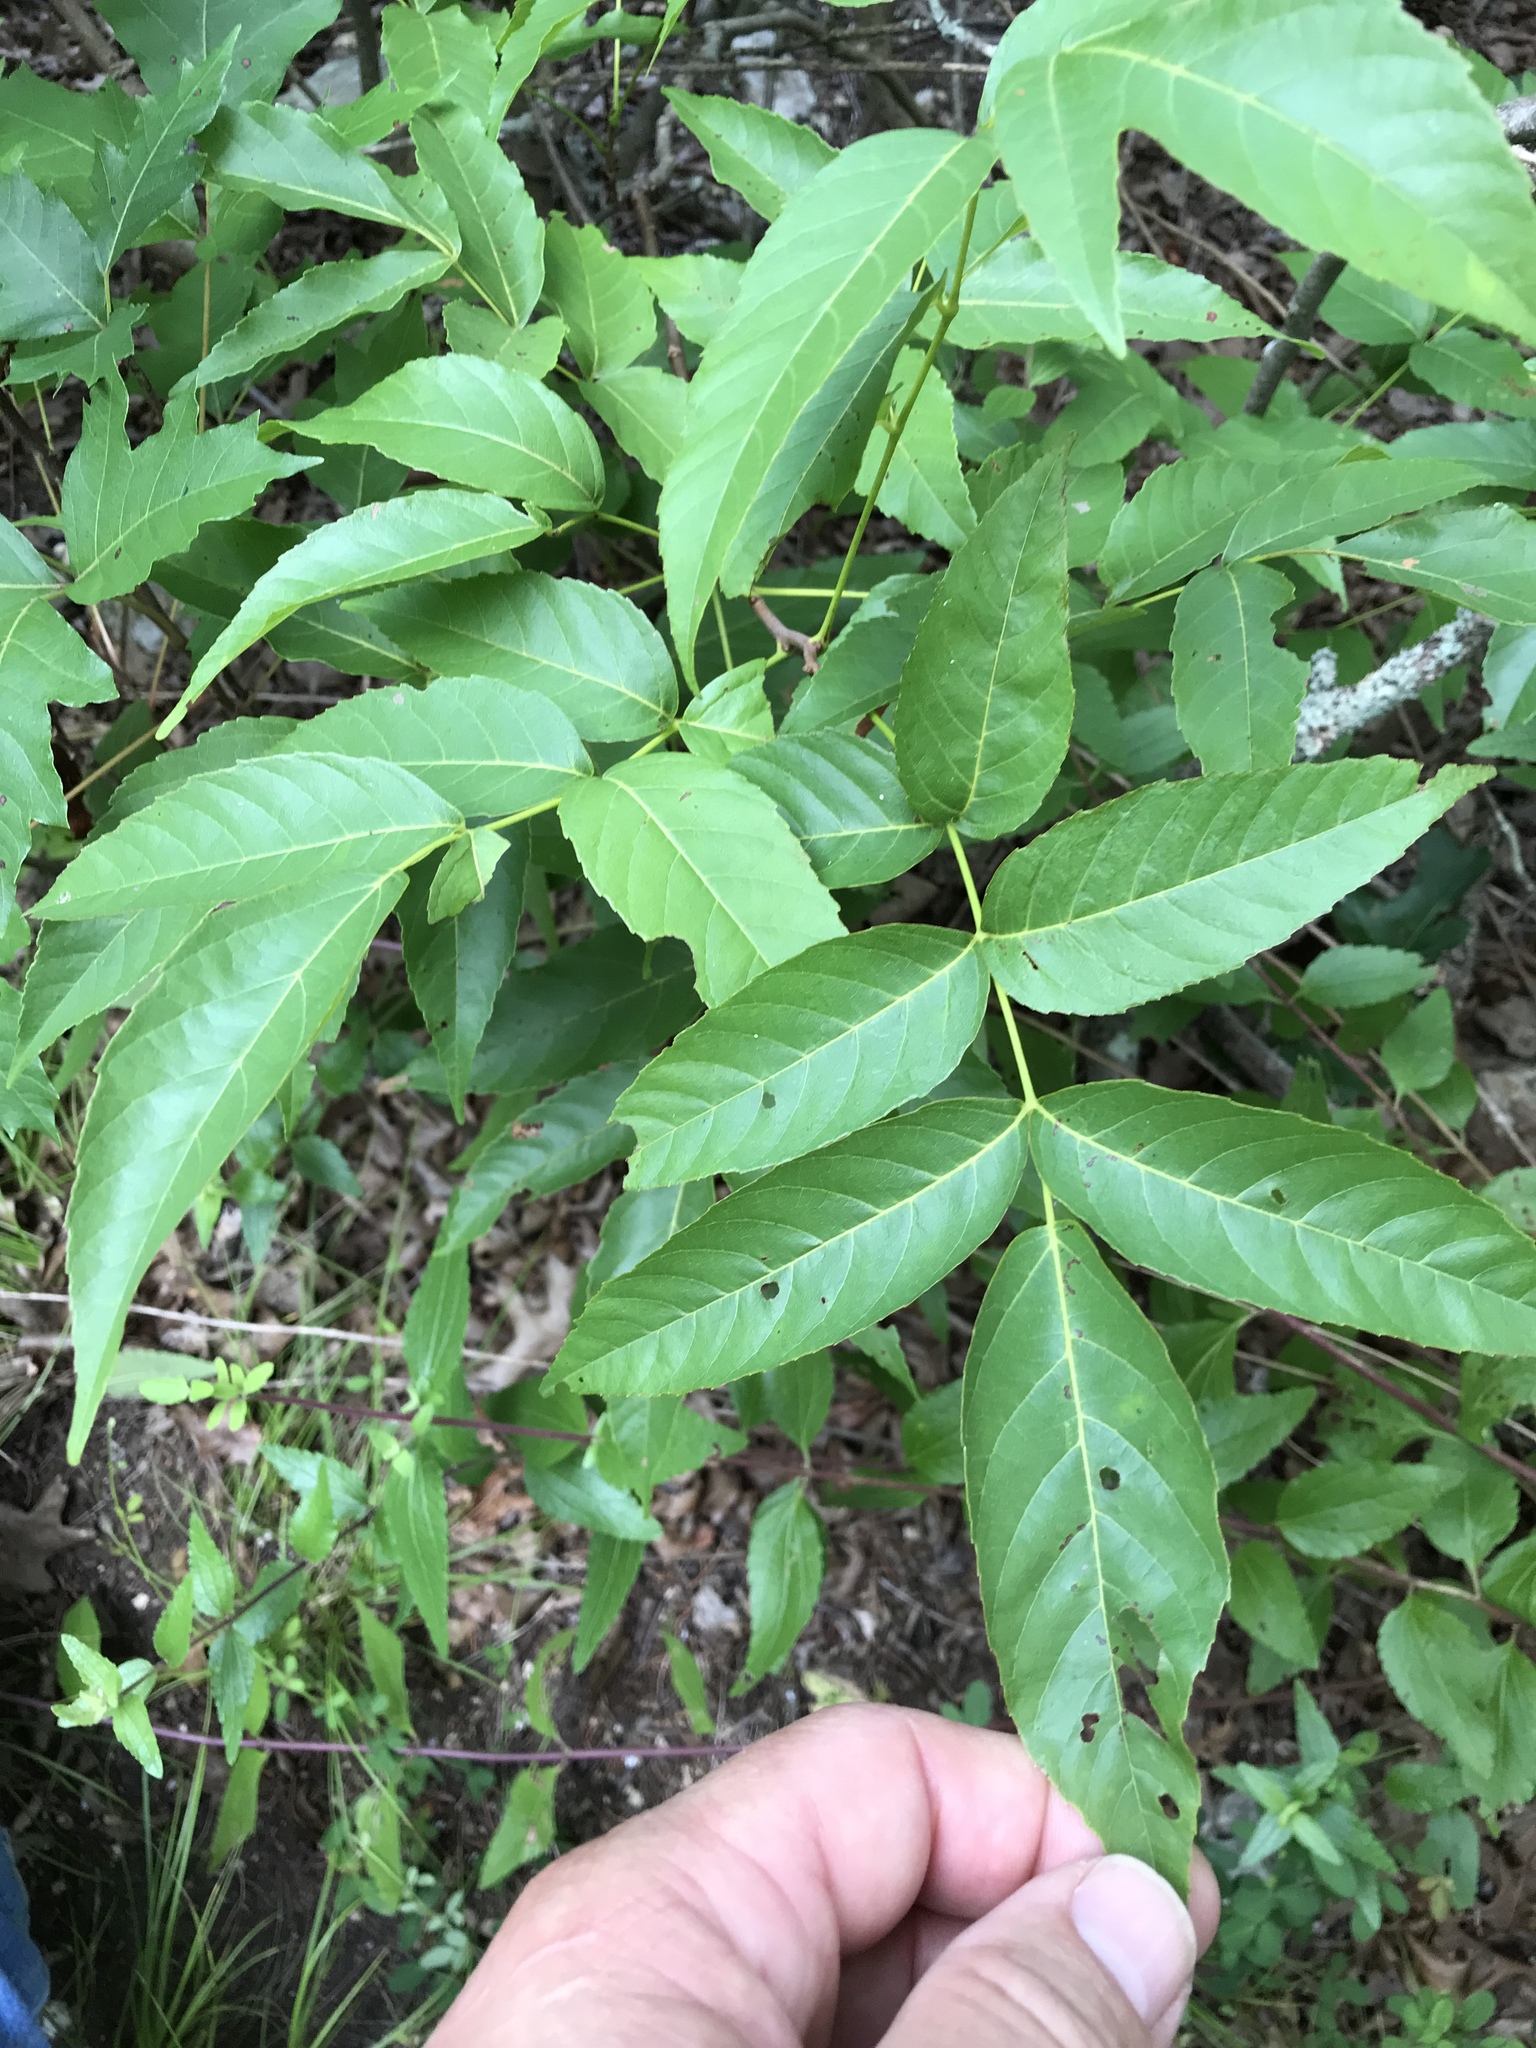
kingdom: Plantae
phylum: Tracheophyta
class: Magnoliopsida
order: Sapindales
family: Sapindaceae
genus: Ungnadia
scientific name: Ungnadia speciosa
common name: Texas-buckeye
